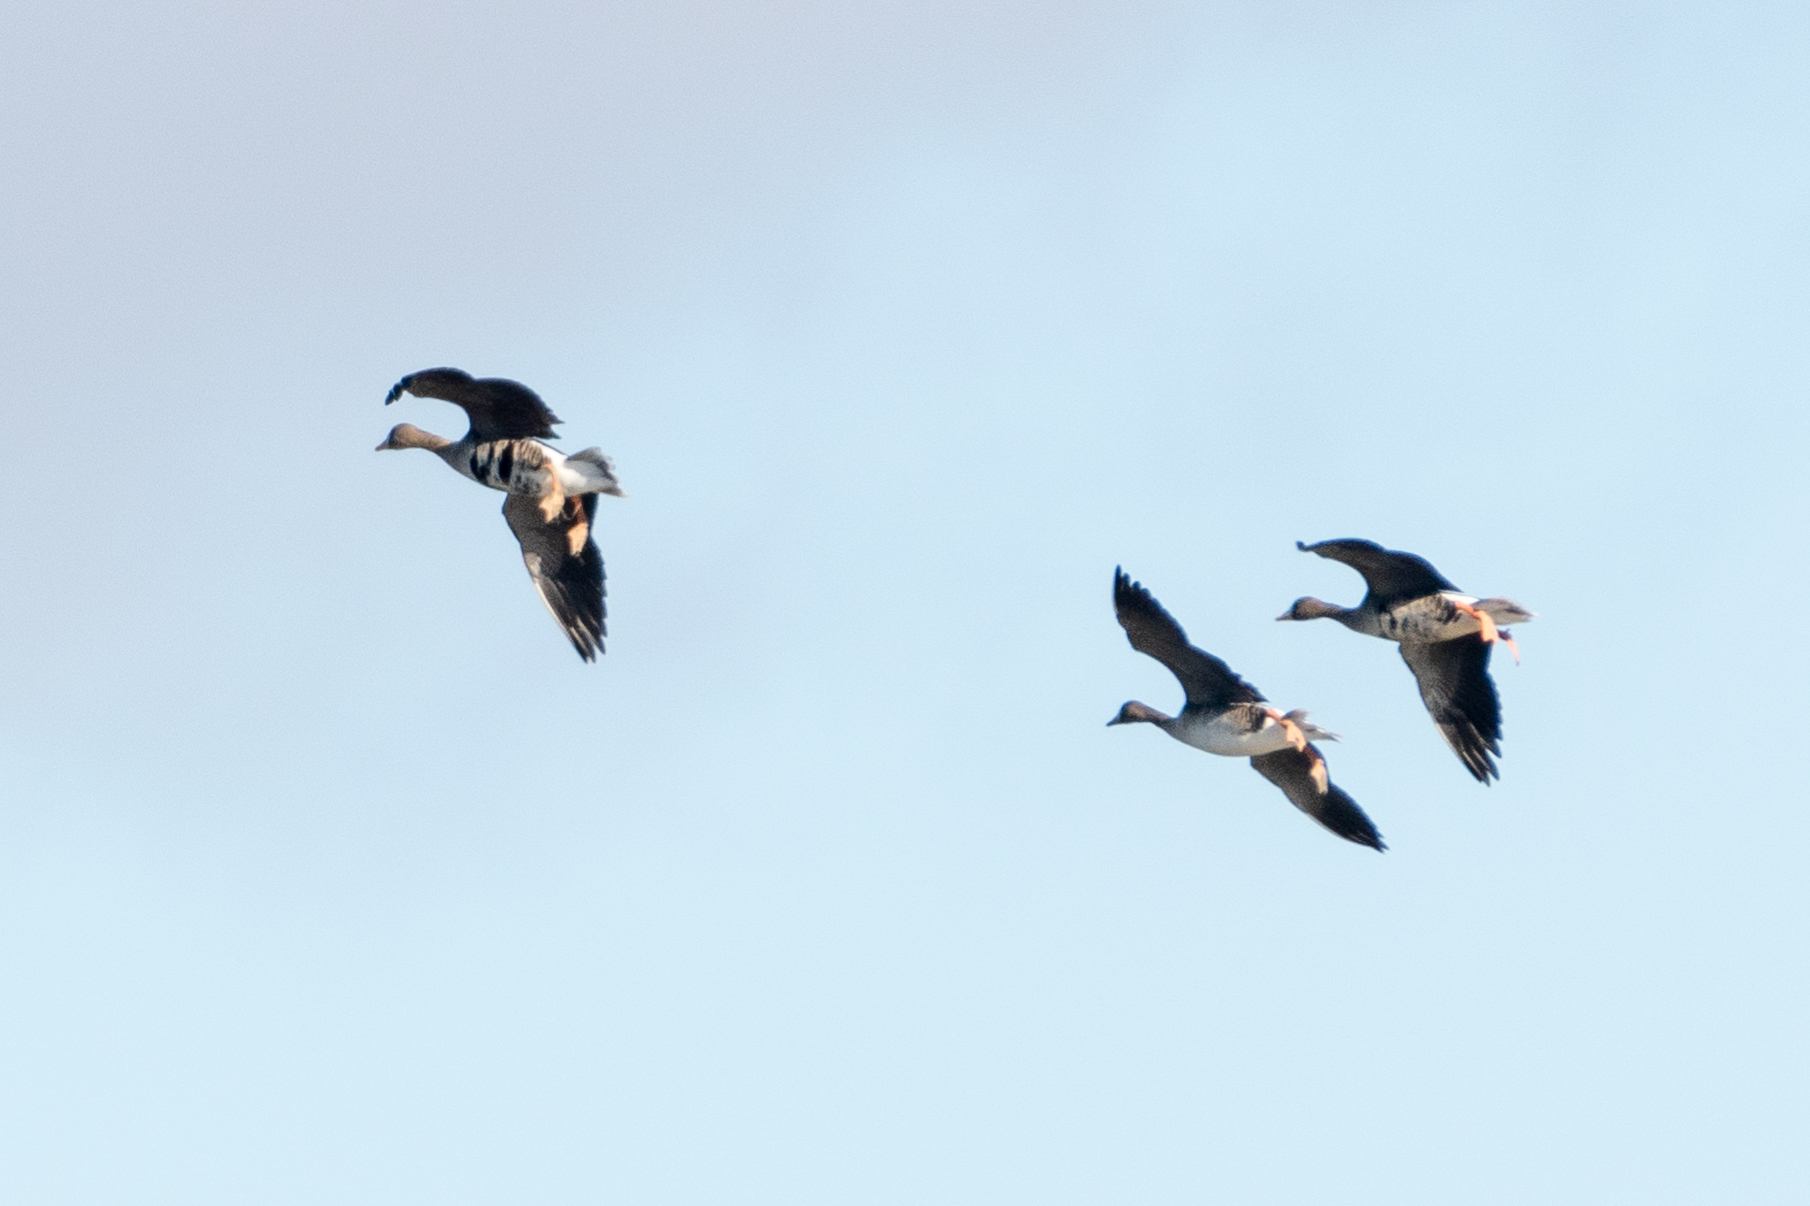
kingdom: Animalia
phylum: Chordata
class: Aves
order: Anseriformes
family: Anatidae
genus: Anser
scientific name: Anser albifrons
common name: Greater white-fronted goose
